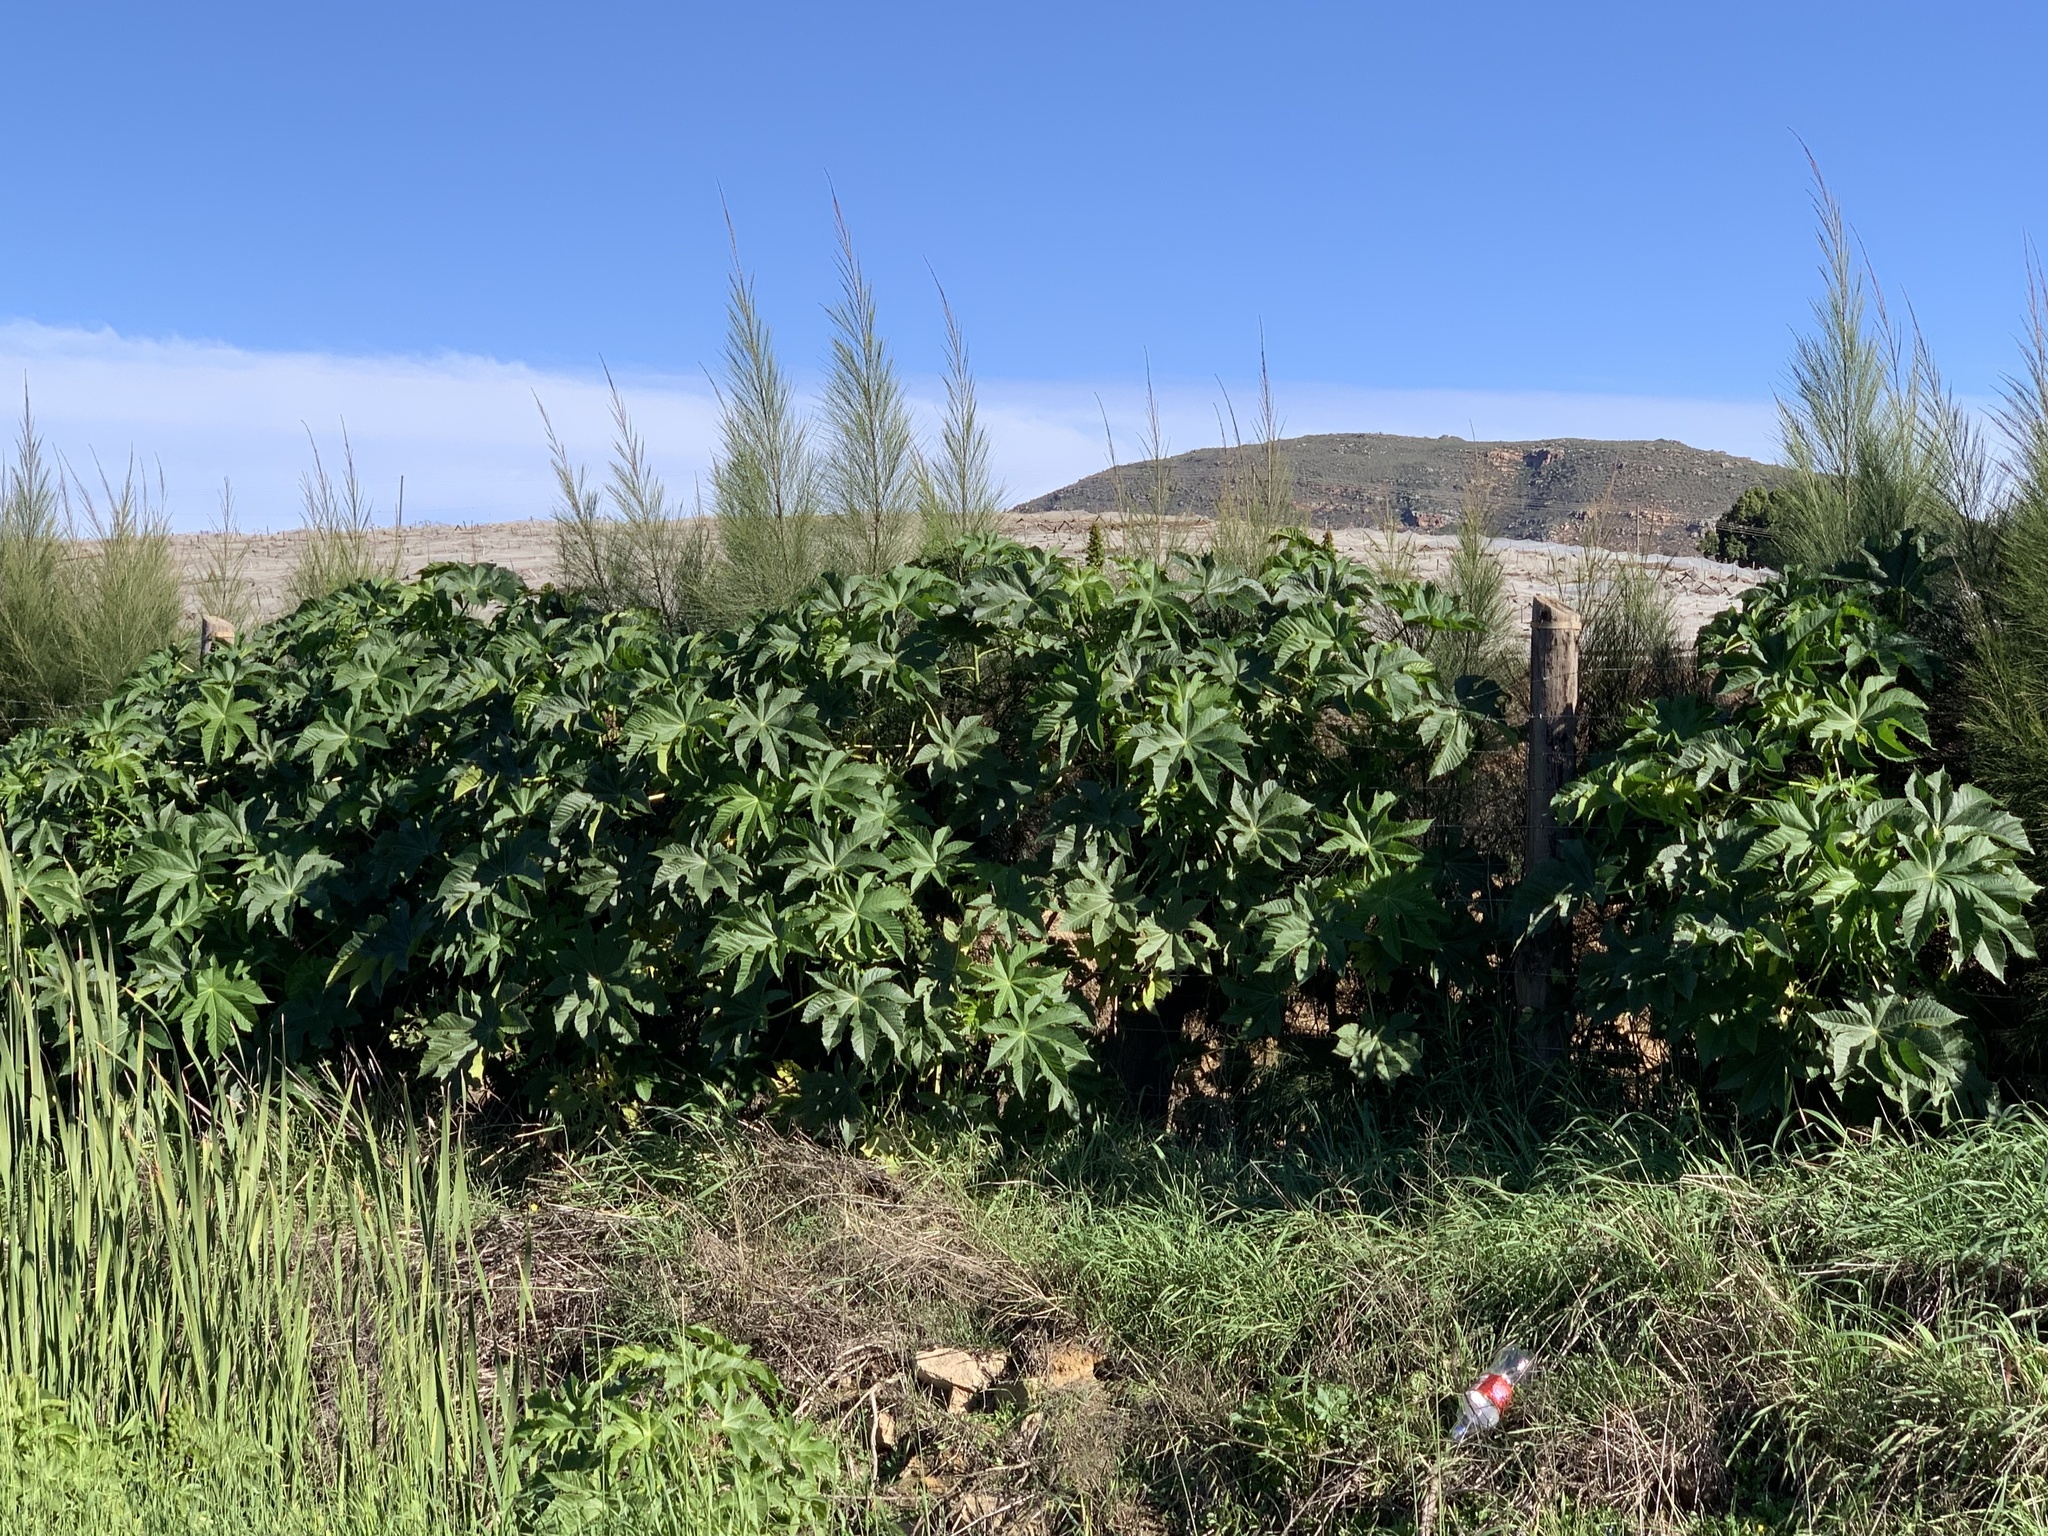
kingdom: Plantae
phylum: Tracheophyta
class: Magnoliopsida
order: Malpighiales
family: Euphorbiaceae
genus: Ricinus
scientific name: Ricinus communis
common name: Castor-oil-plant
